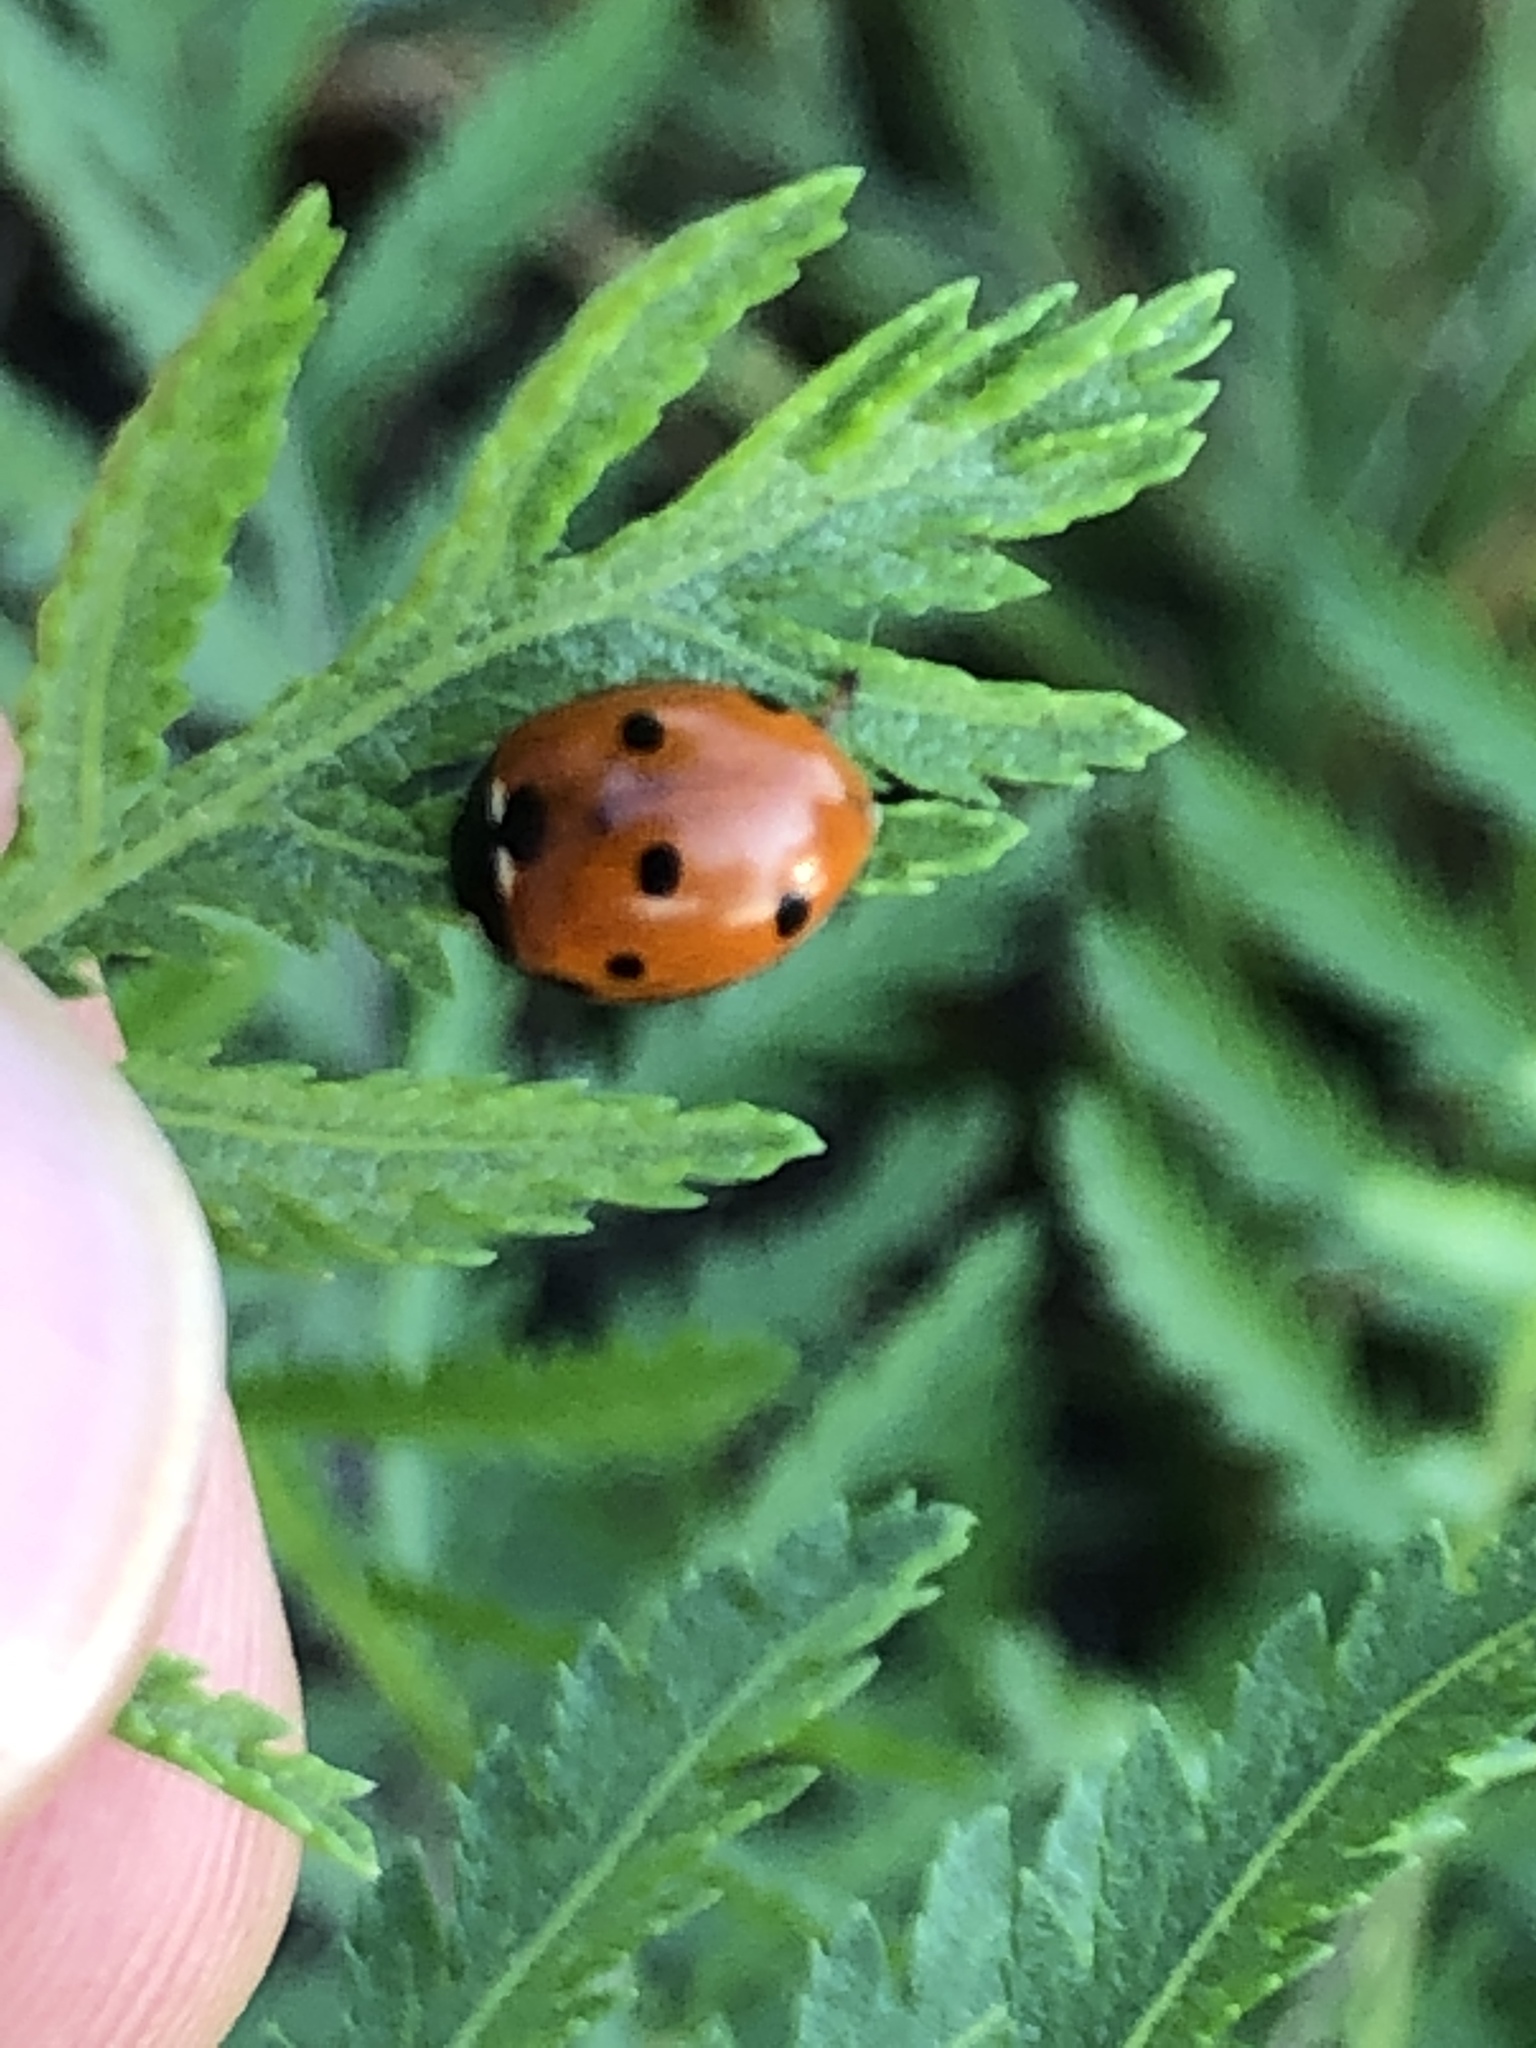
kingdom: Animalia
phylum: Arthropoda
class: Insecta
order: Coleoptera
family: Coccinellidae
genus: Coccinella
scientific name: Coccinella septempunctata
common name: Sevenspotted lady beetle
